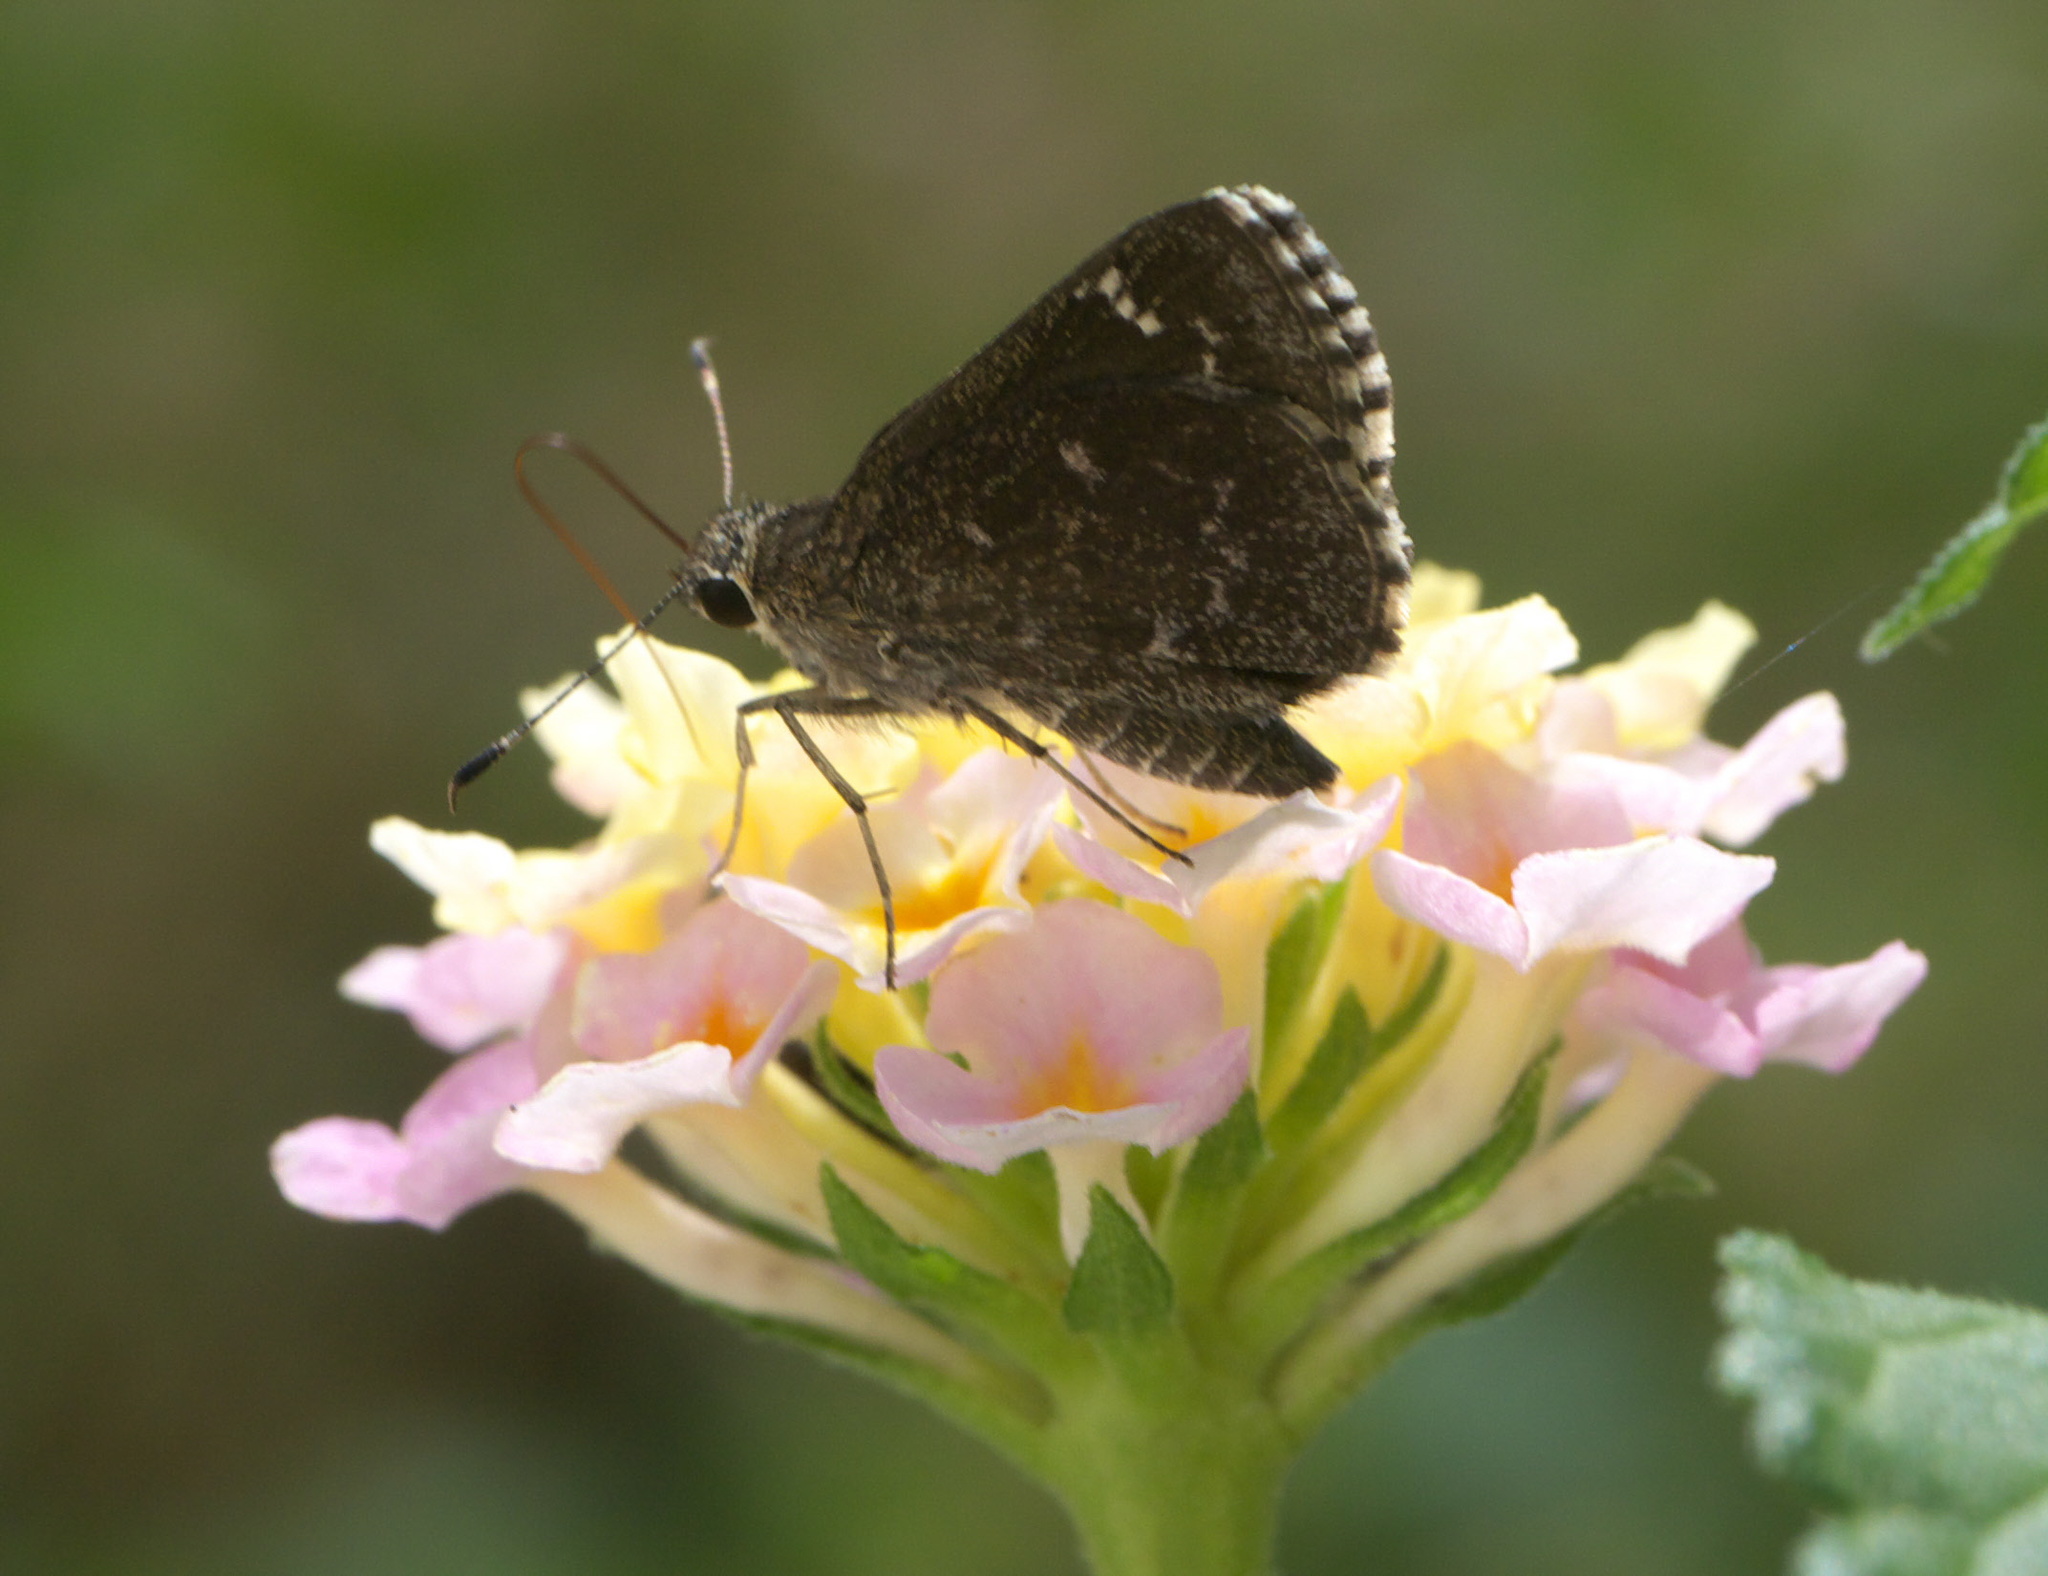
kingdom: Animalia
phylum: Arthropoda
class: Insecta
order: Lepidoptera
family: Hesperiidae
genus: Mastor
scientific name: Mastor celia
